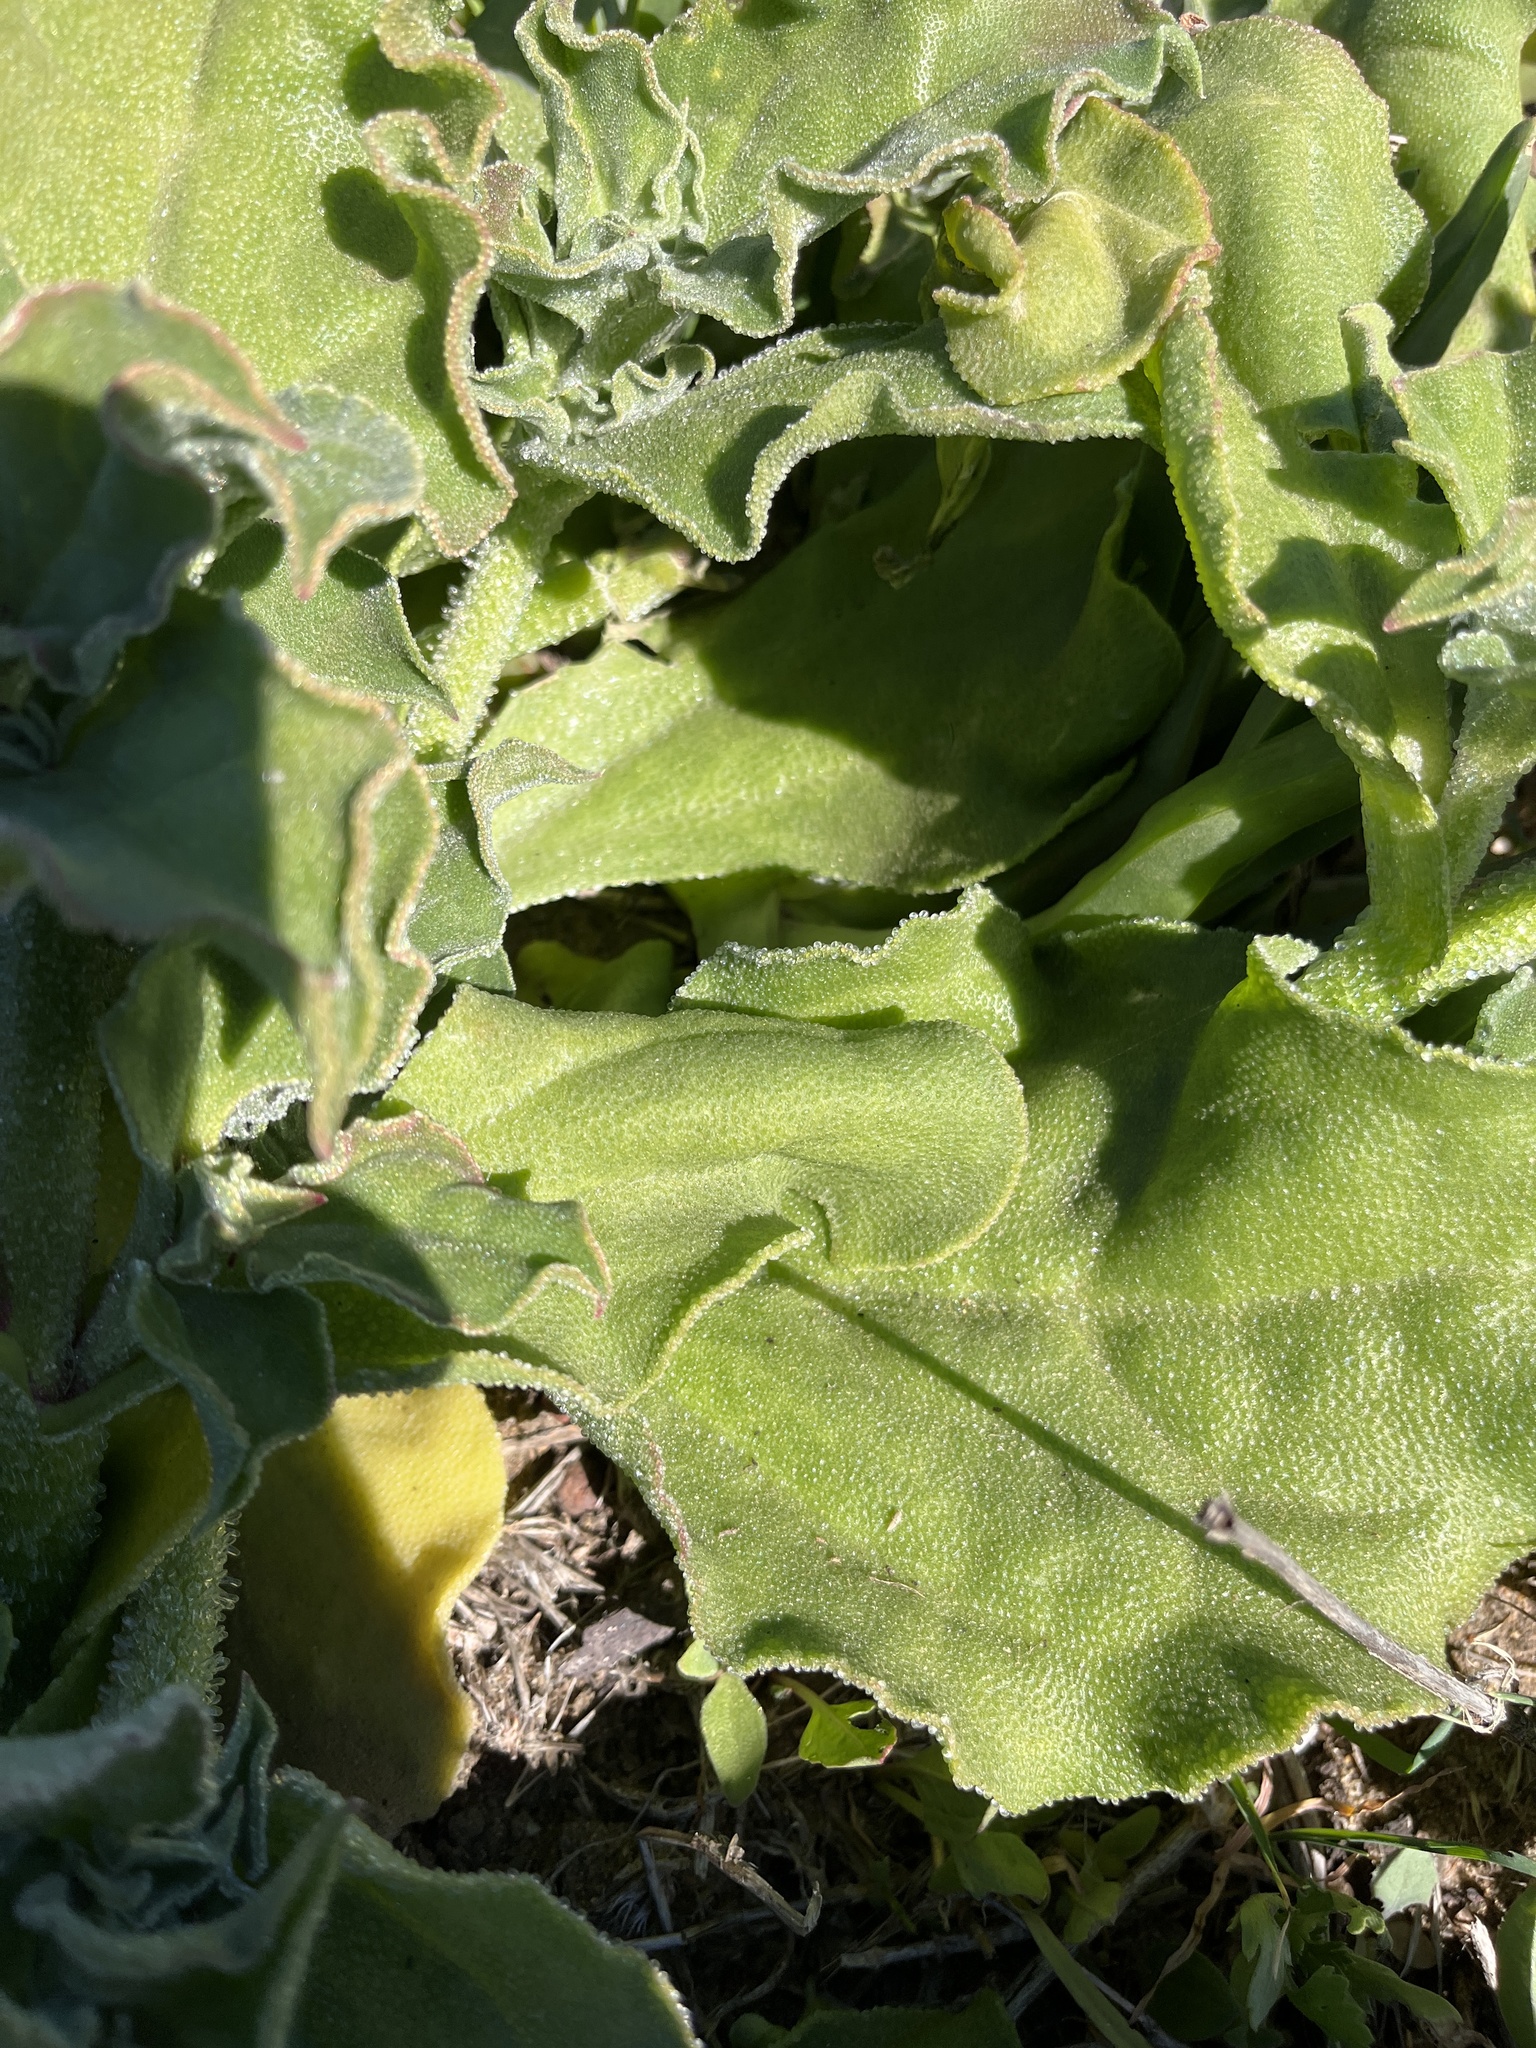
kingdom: Plantae
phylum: Tracheophyta
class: Magnoliopsida
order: Caryophyllales
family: Aizoaceae
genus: Mesembryanthemum
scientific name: Mesembryanthemum crystallinum
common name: Common iceplant
